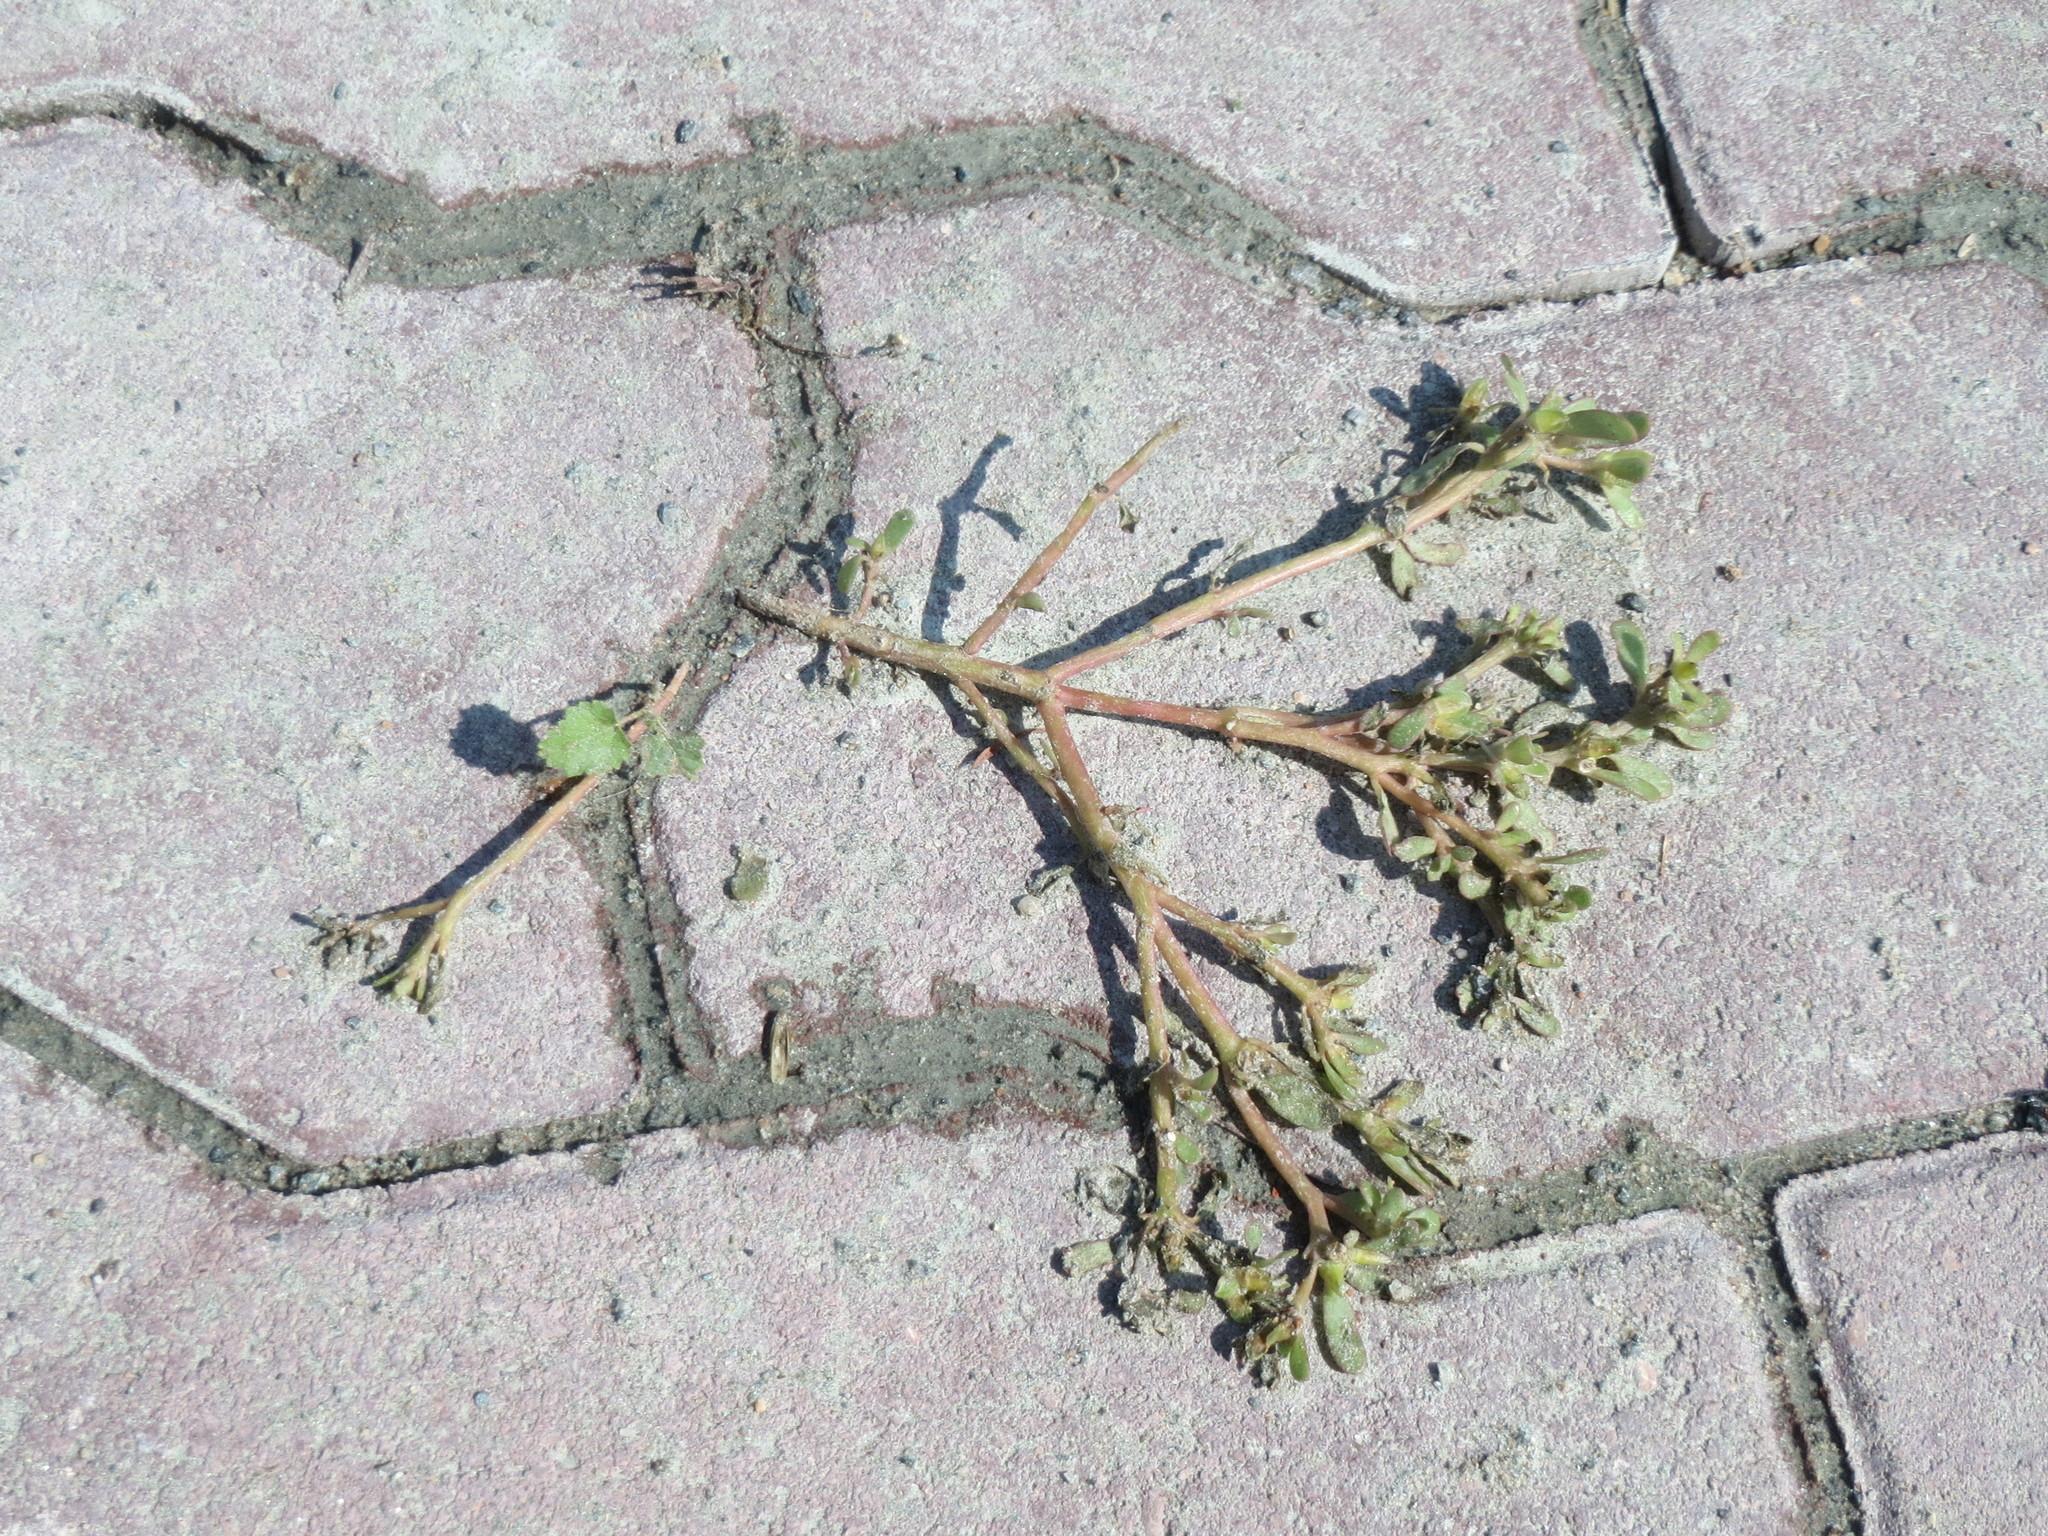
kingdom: Plantae
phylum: Tracheophyta
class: Magnoliopsida
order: Caryophyllales
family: Portulacaceae
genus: Portulaca
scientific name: Portulaca oleracea
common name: Common purslane
